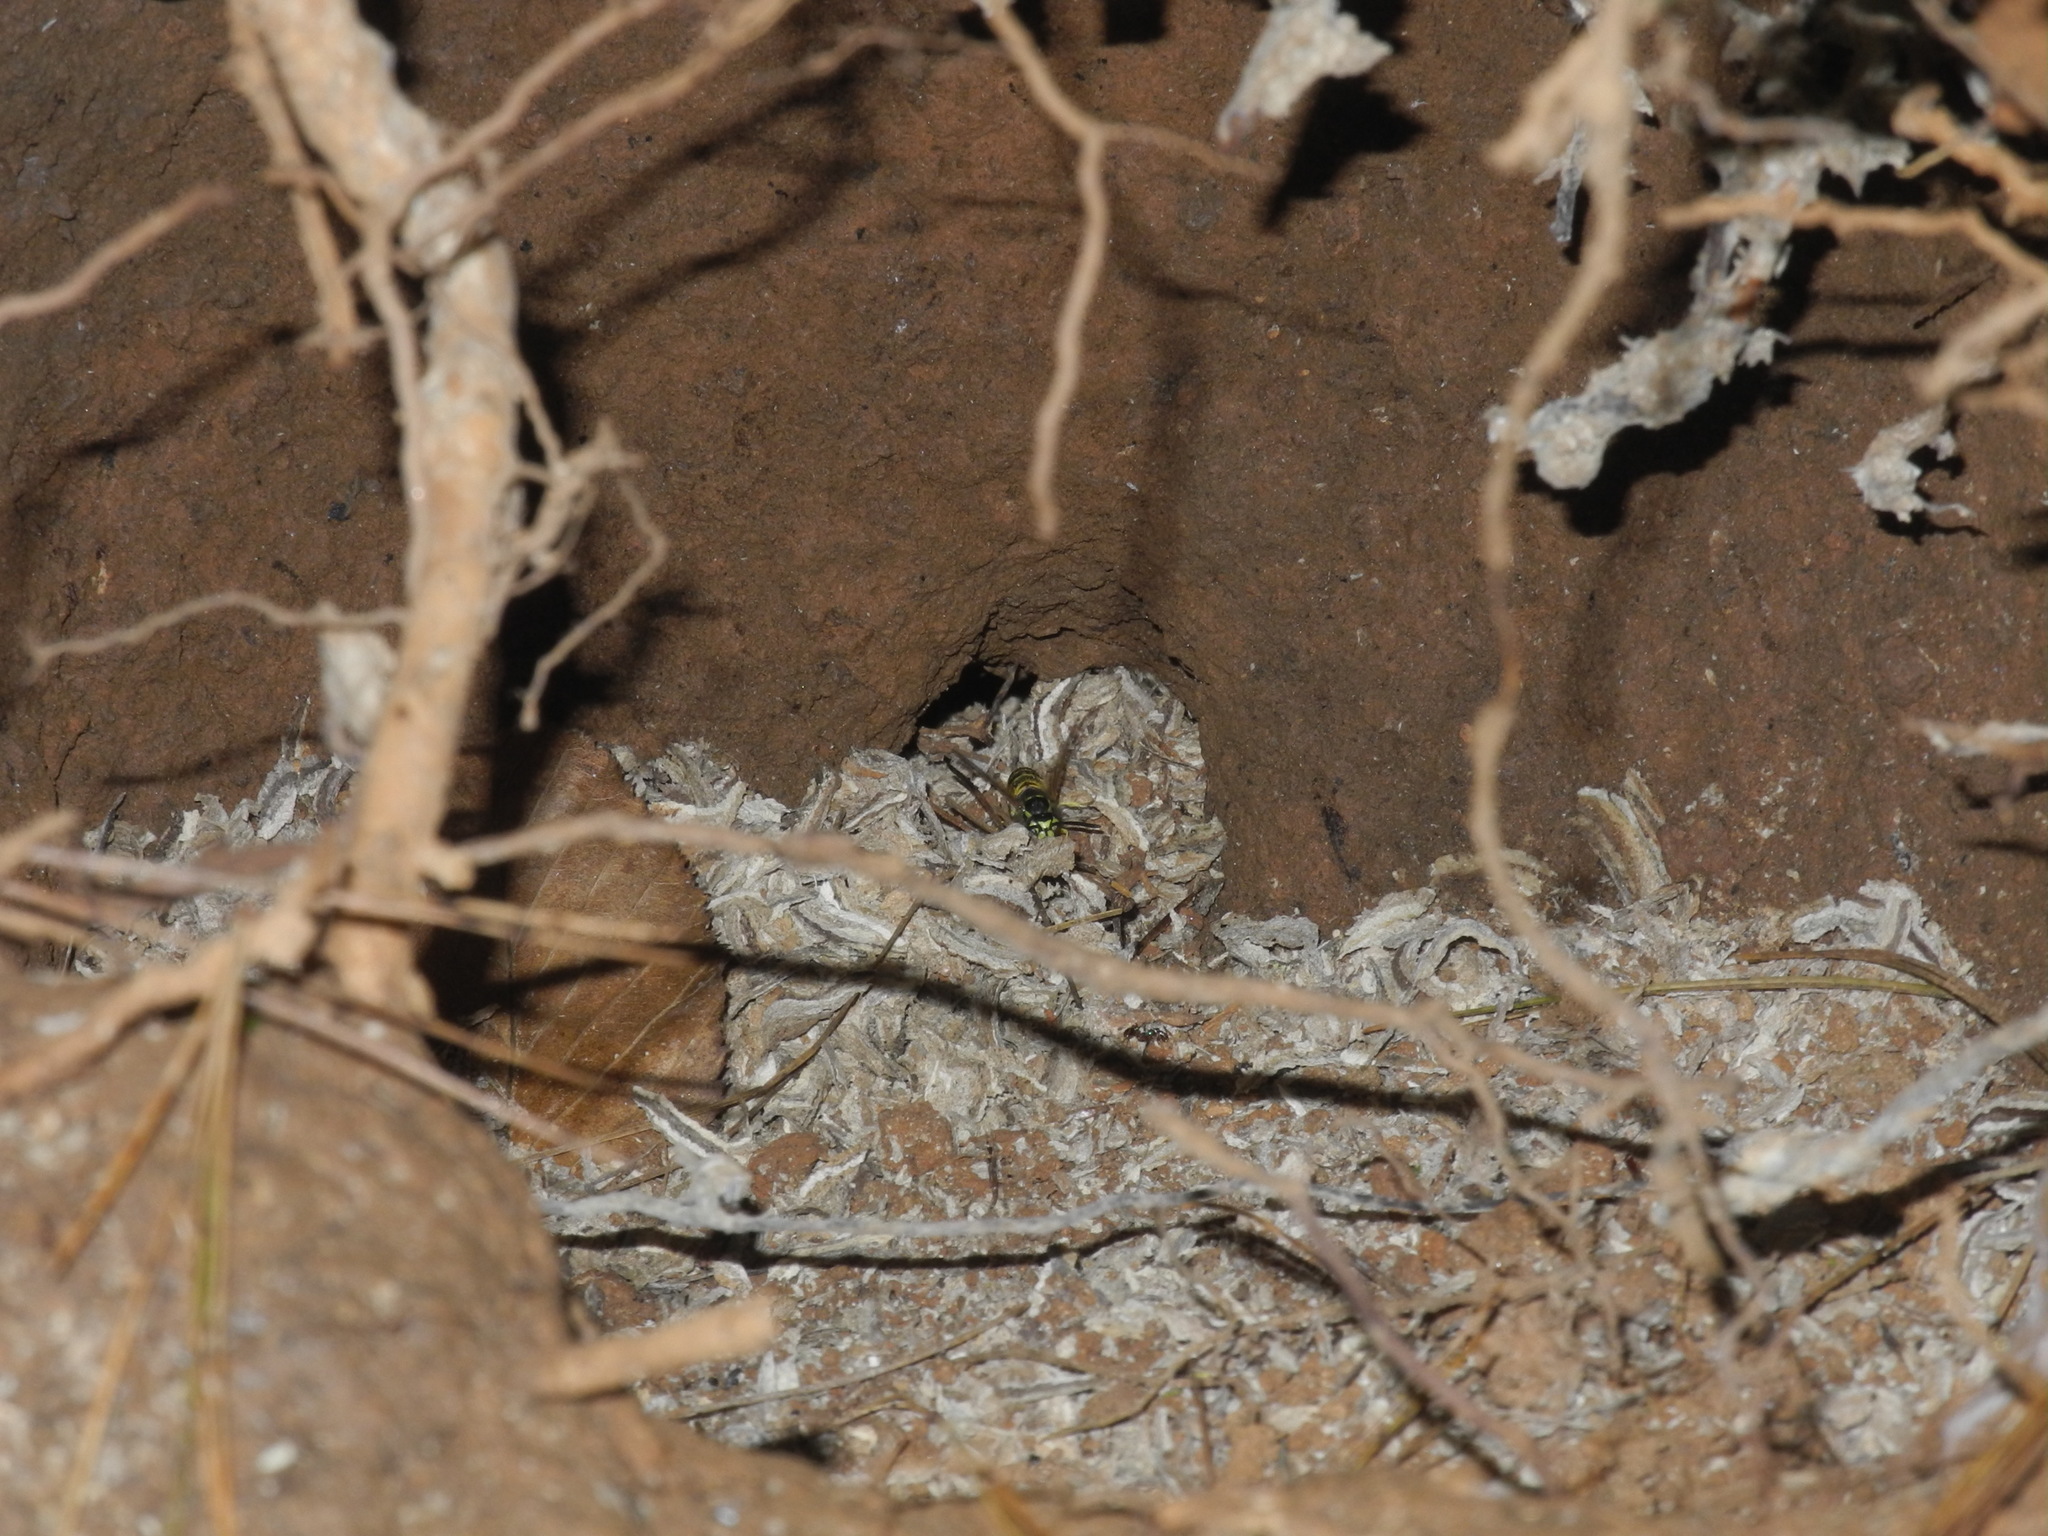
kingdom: Animalia
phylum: Arthropoda
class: Insecta
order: Hymenoptera
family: Vespidae
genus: Vespula
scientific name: Vespula maculifrons
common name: Eastern yellowjacket
